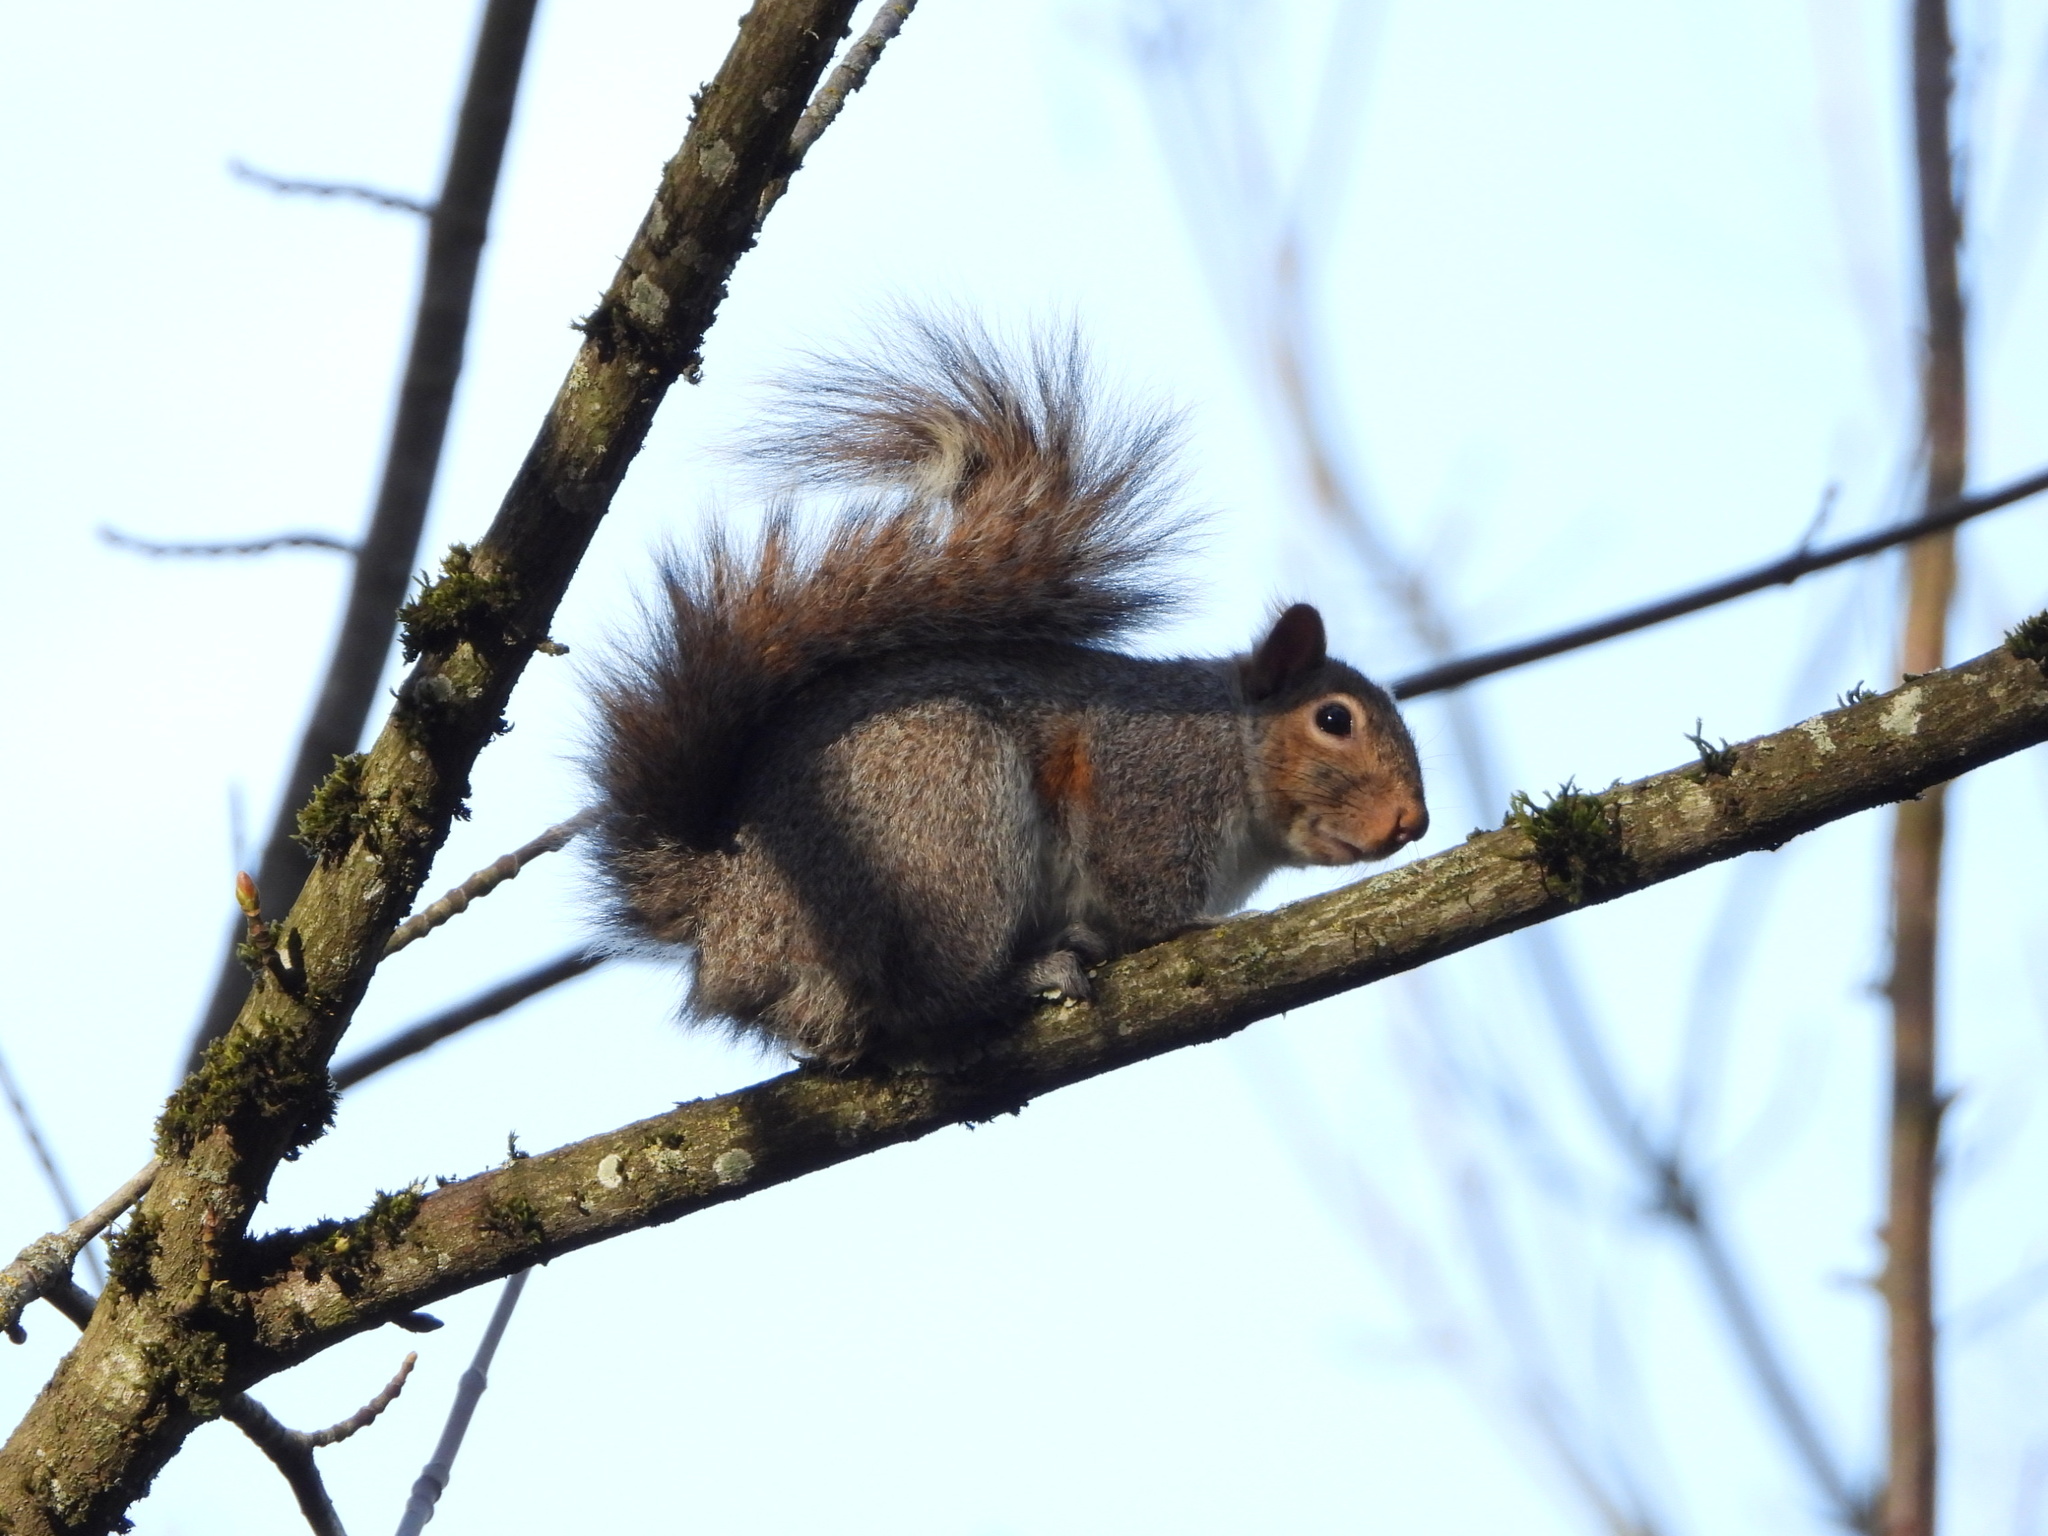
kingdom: Animalia
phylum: Chordata
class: Mammalia
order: Rodentia
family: Sciuridae
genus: Sciurus
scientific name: Sciurus carolinensis
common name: Eastern gray squirrel
